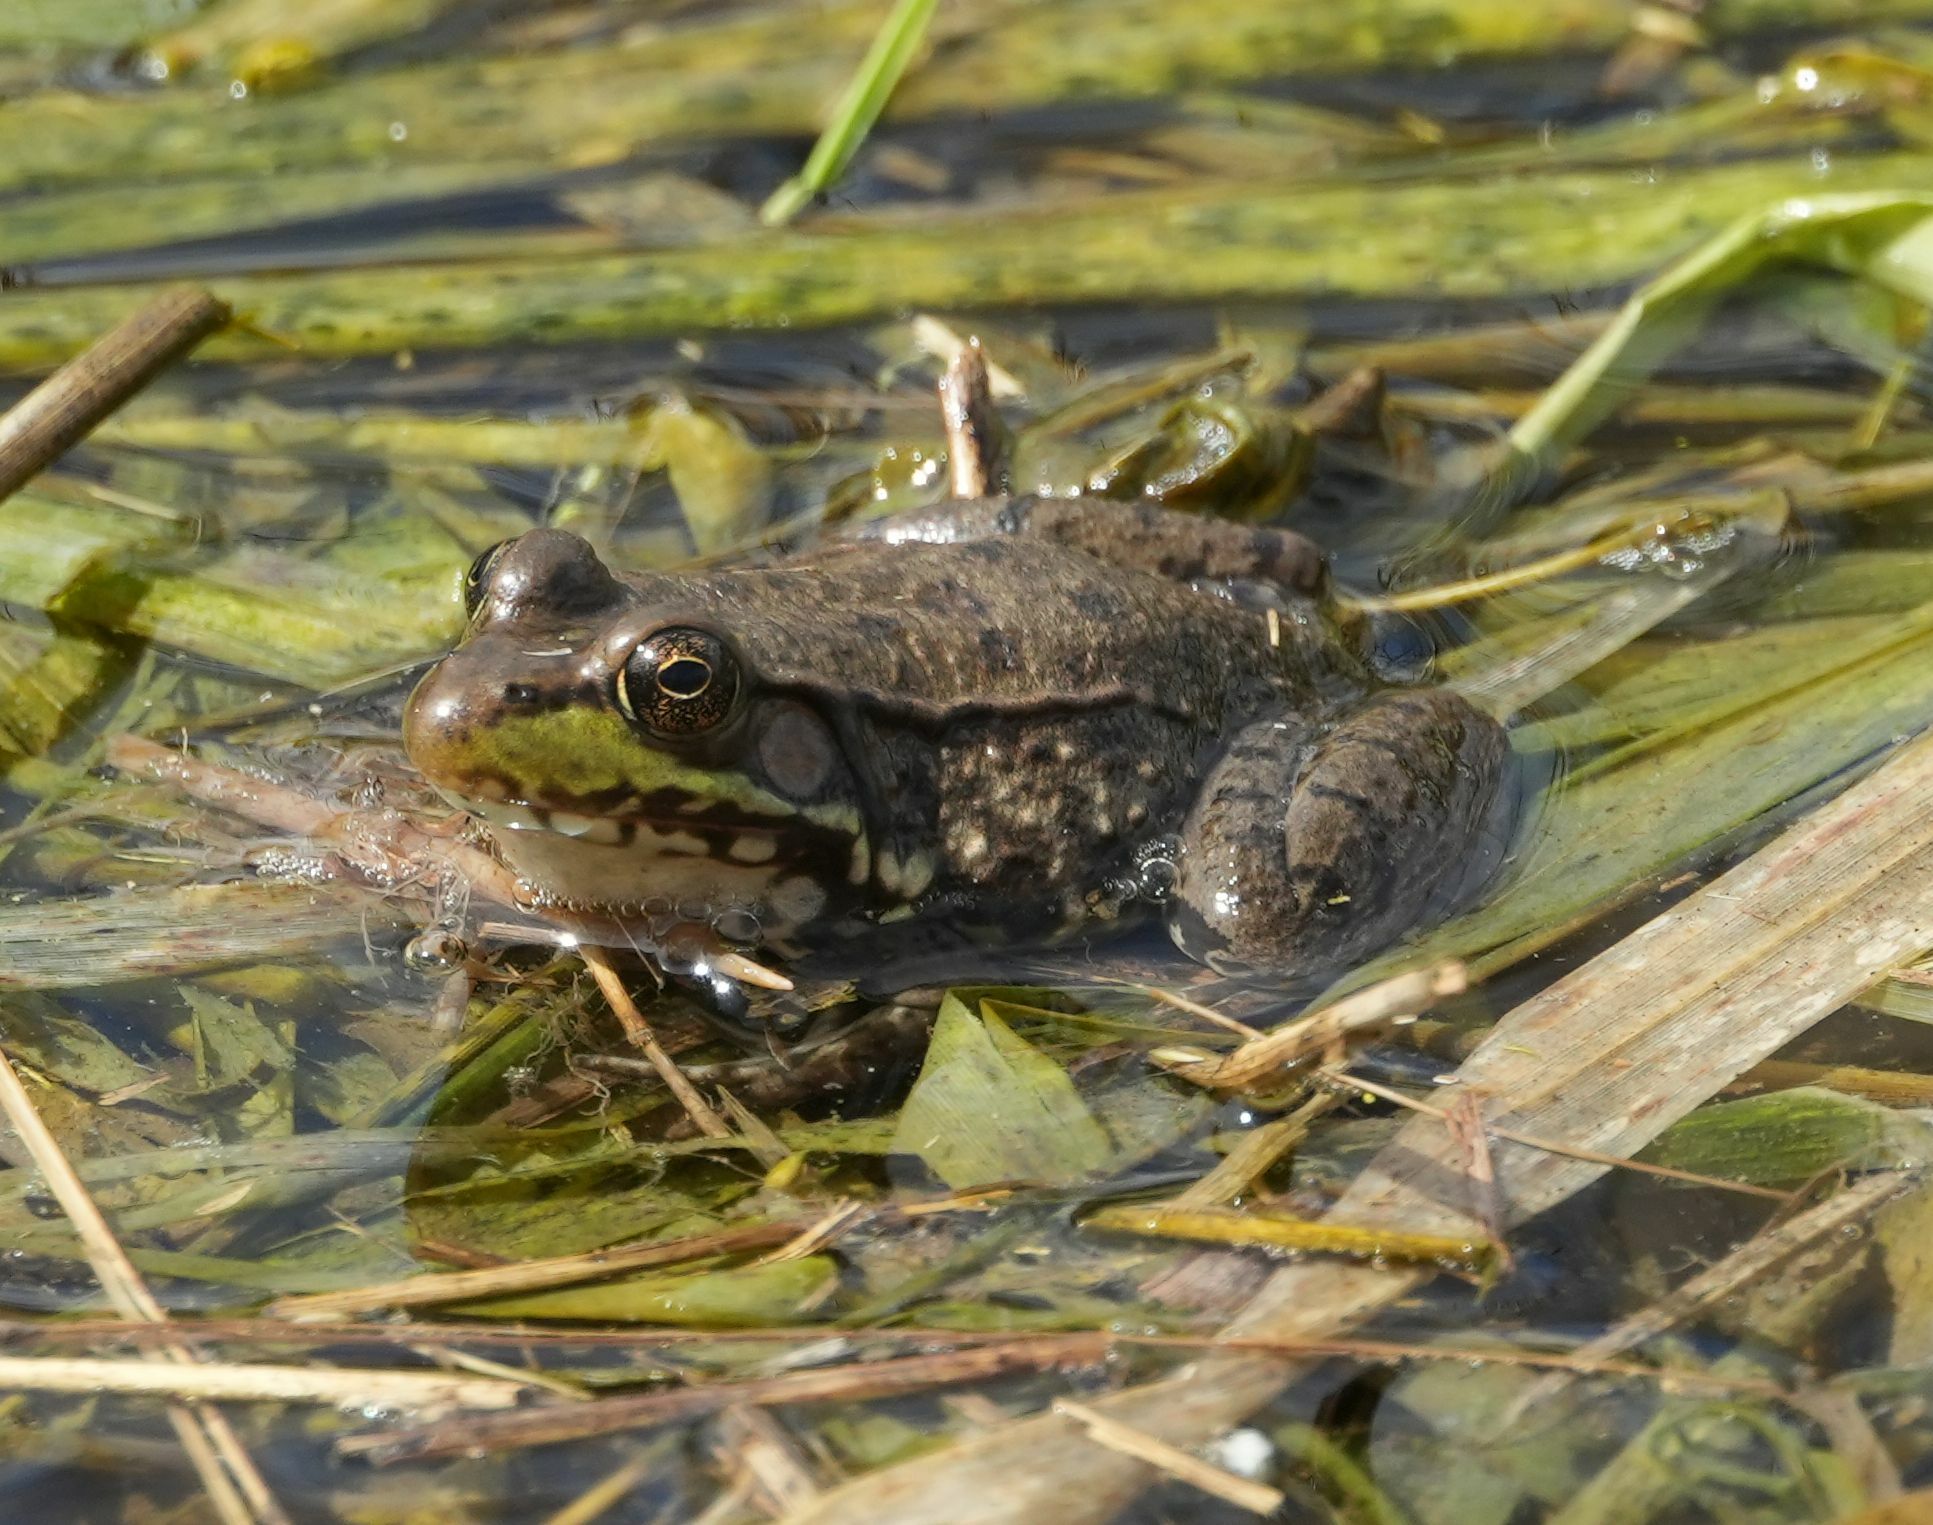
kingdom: Animalia
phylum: Chordata
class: Amphibia
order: Anura
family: Ranidae
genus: Lithobates
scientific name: Lithobates clamitans
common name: Green frog
